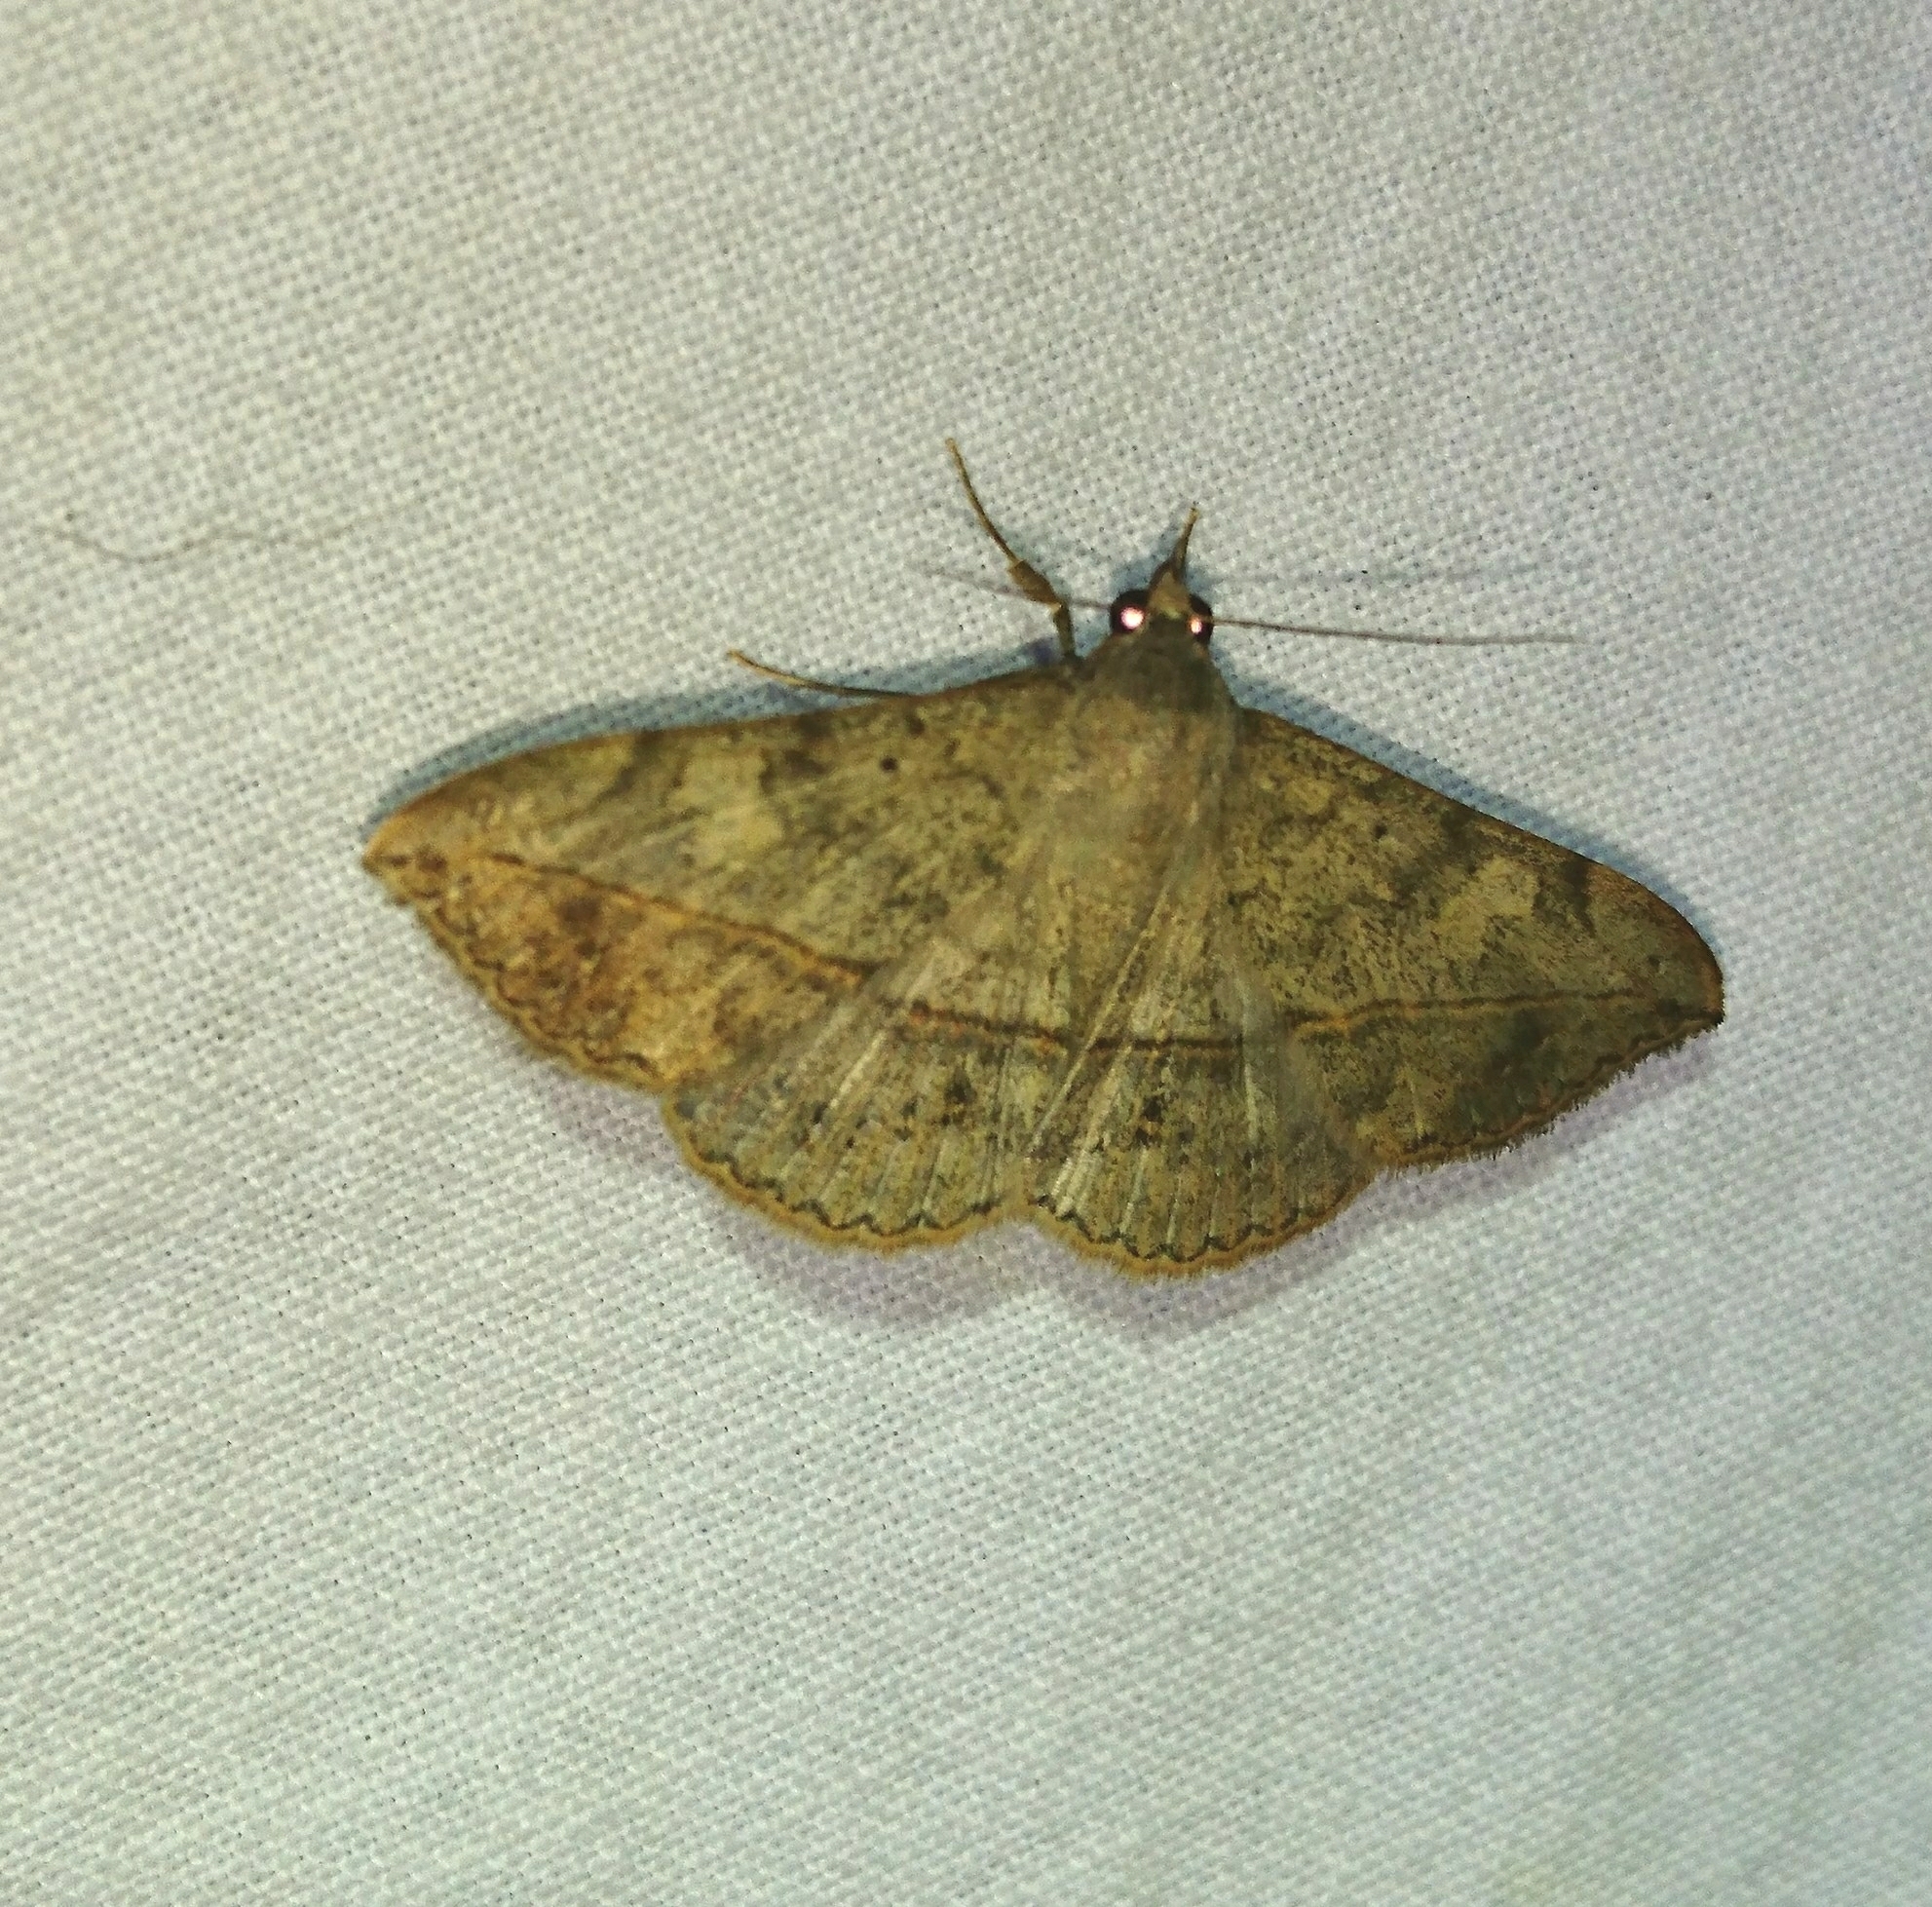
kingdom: Animalia
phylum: Arthropoda
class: Insecta
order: Lepidoptera
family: Erebidae
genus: Anticarsia
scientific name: Anticarsia gemmatalis
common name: Cutworm moth
